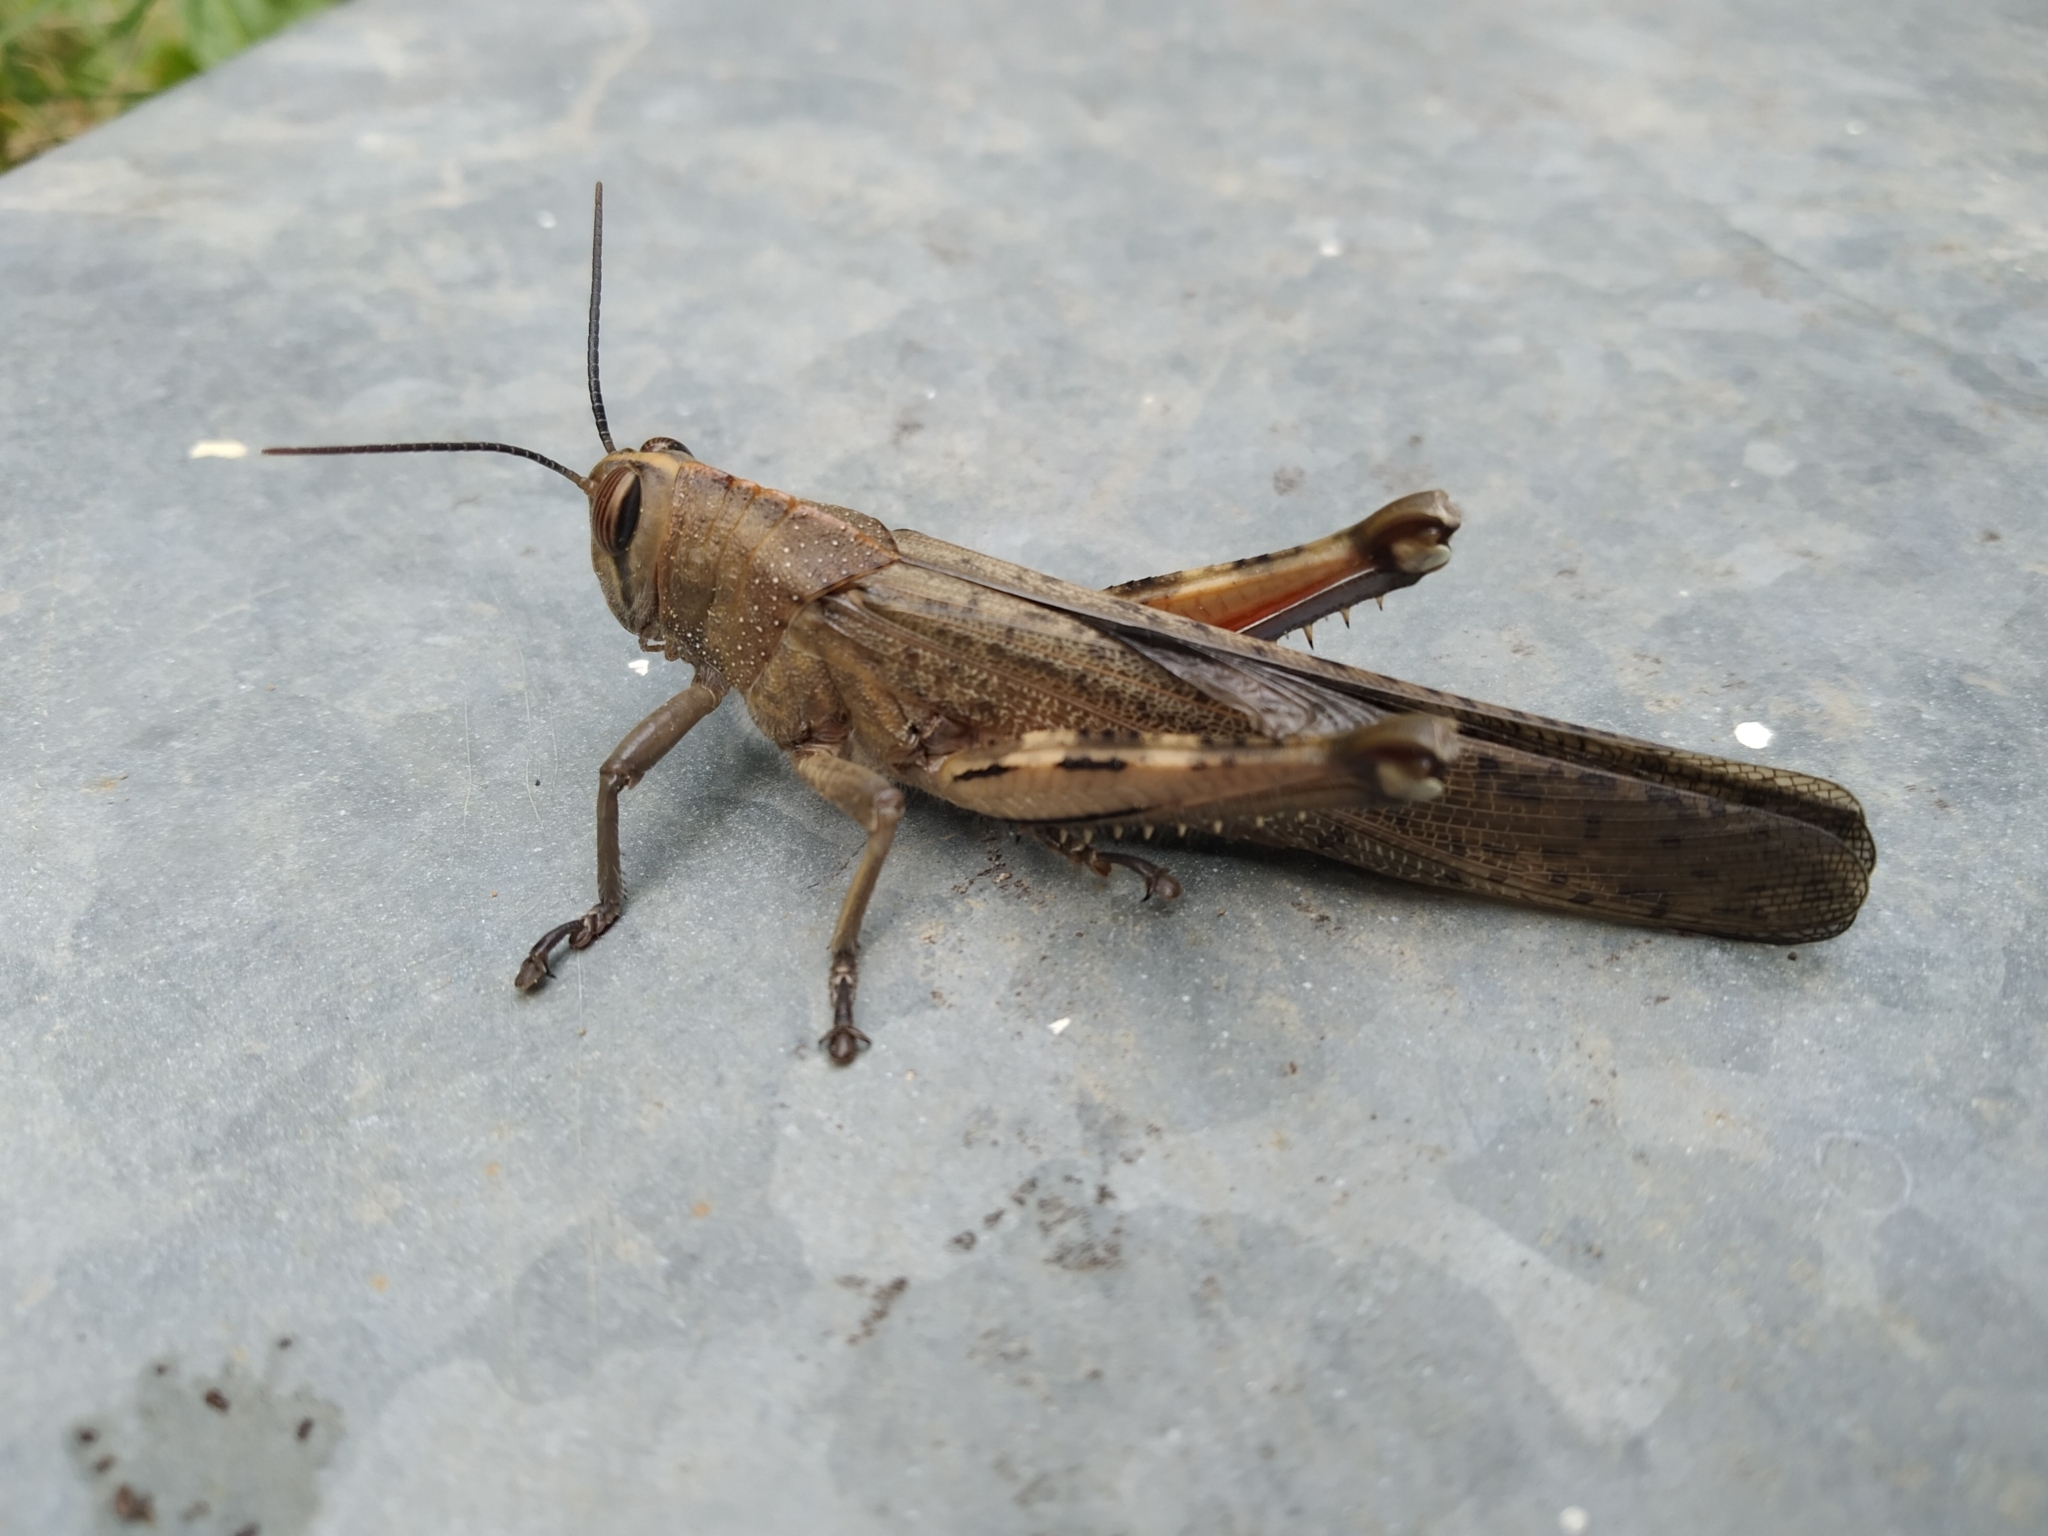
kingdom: Animalia
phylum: Arthropoda
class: Insecta
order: Orthoptera
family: Acrididae
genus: Anacridium
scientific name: Anacridium aegyptium
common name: Egyptian grasshopper
